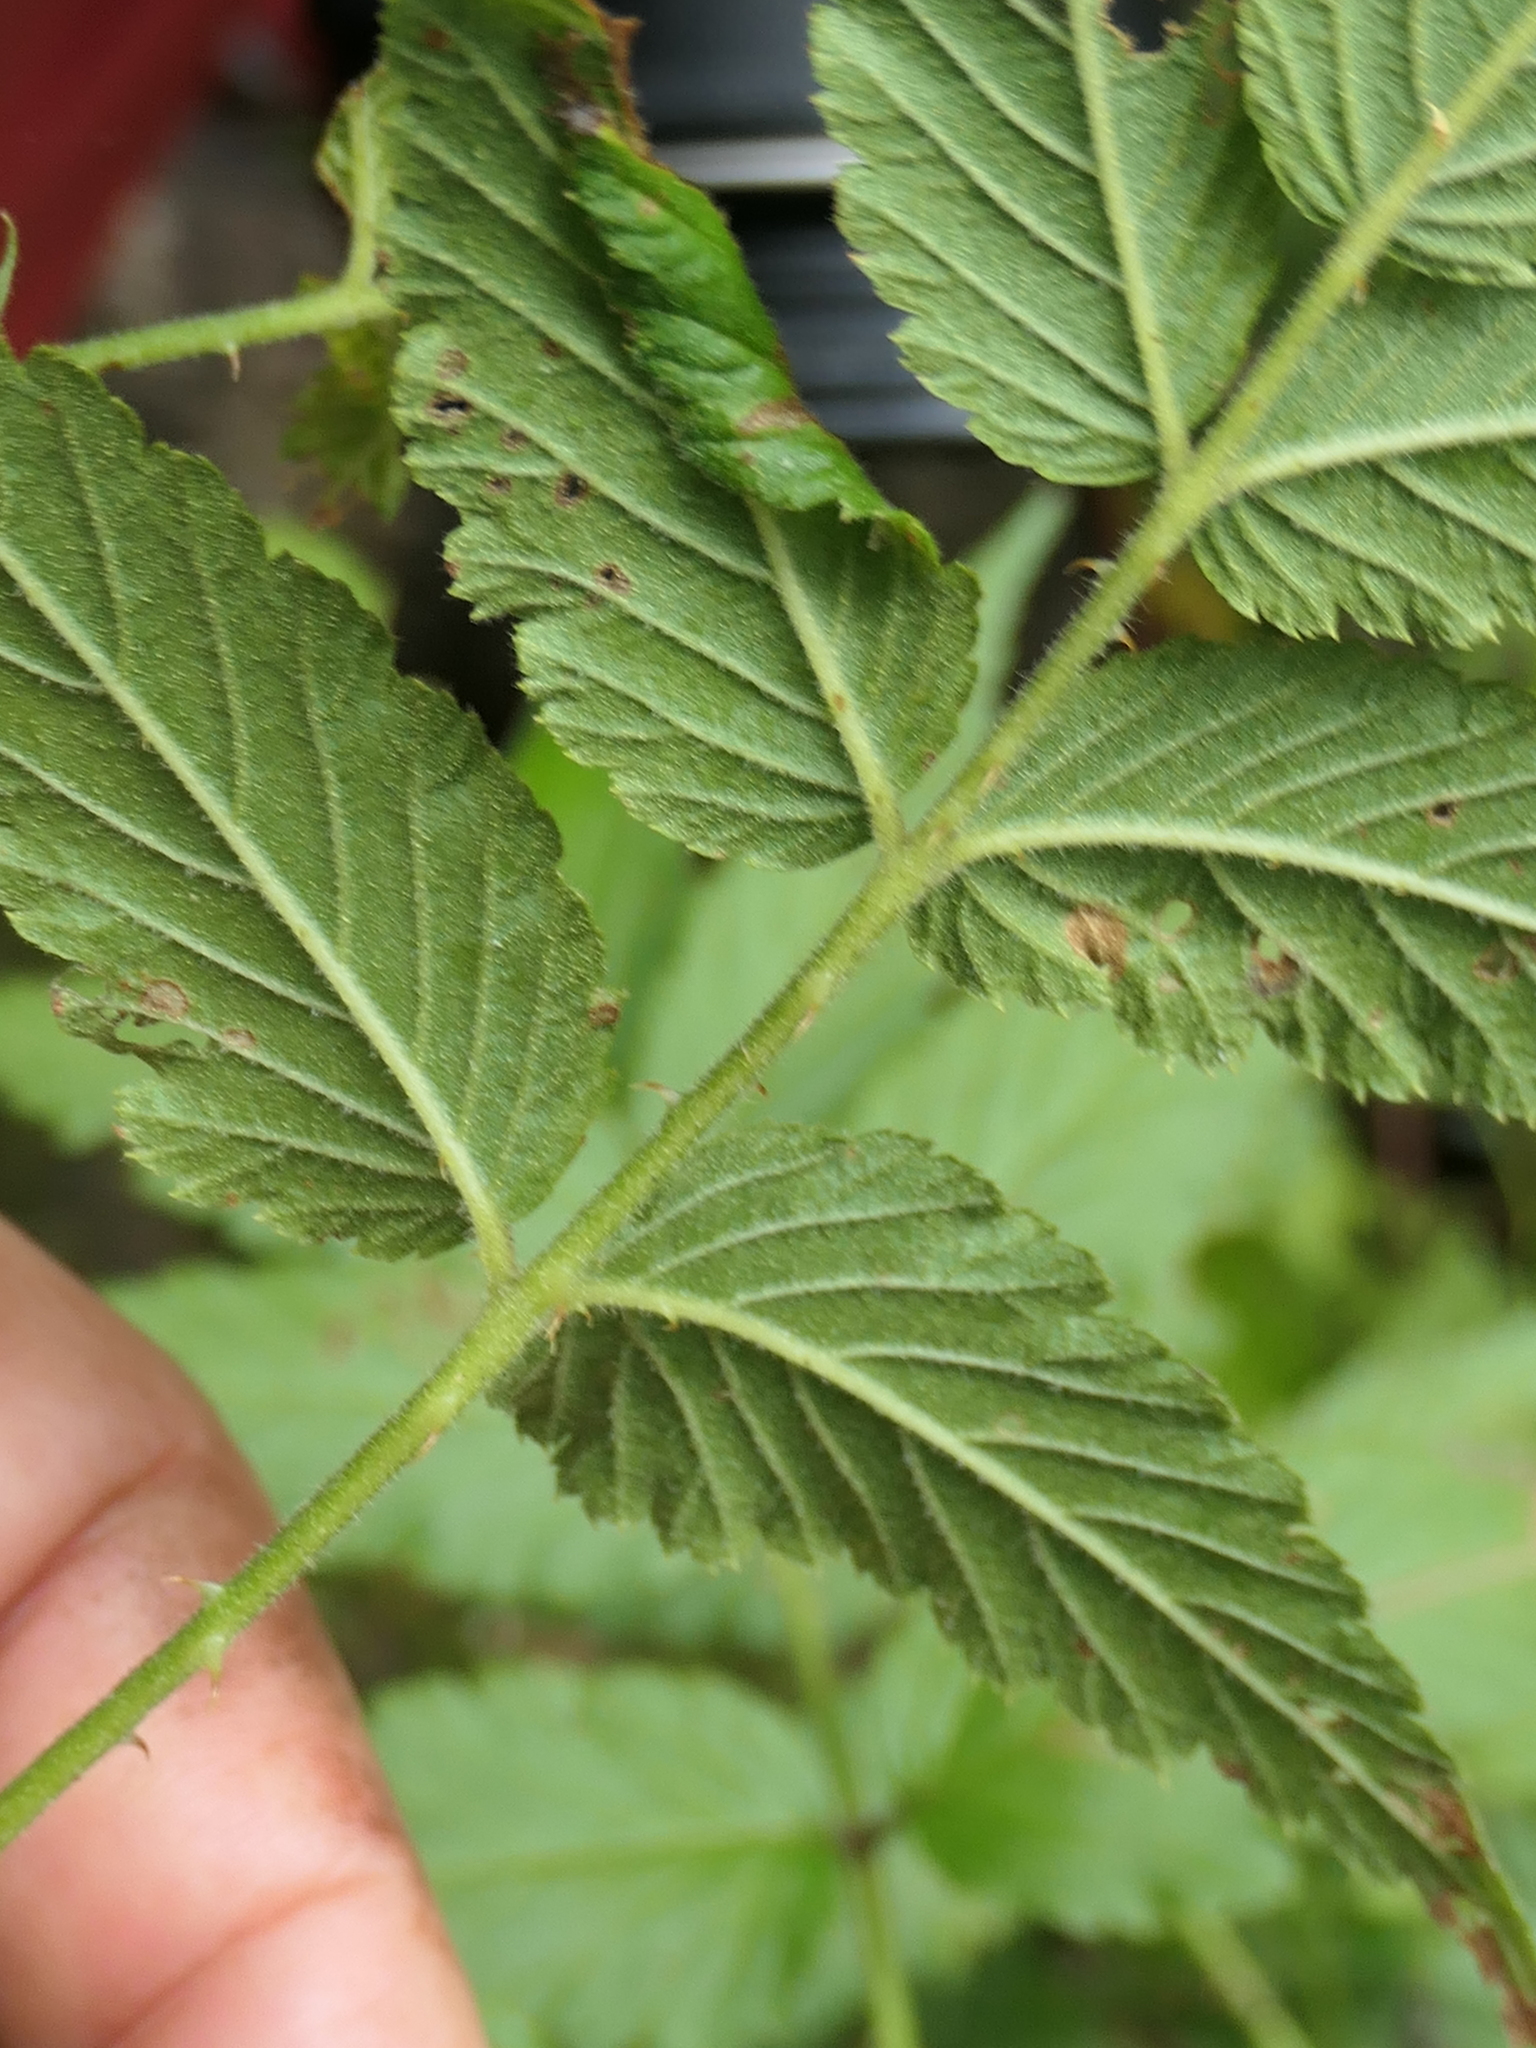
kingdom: Plantae
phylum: Tracheophyta
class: Magnoliopsida
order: Rosales
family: Rosaceae
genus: Rubus
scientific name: Rubus rosifolius
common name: Roseleaf raspberry
